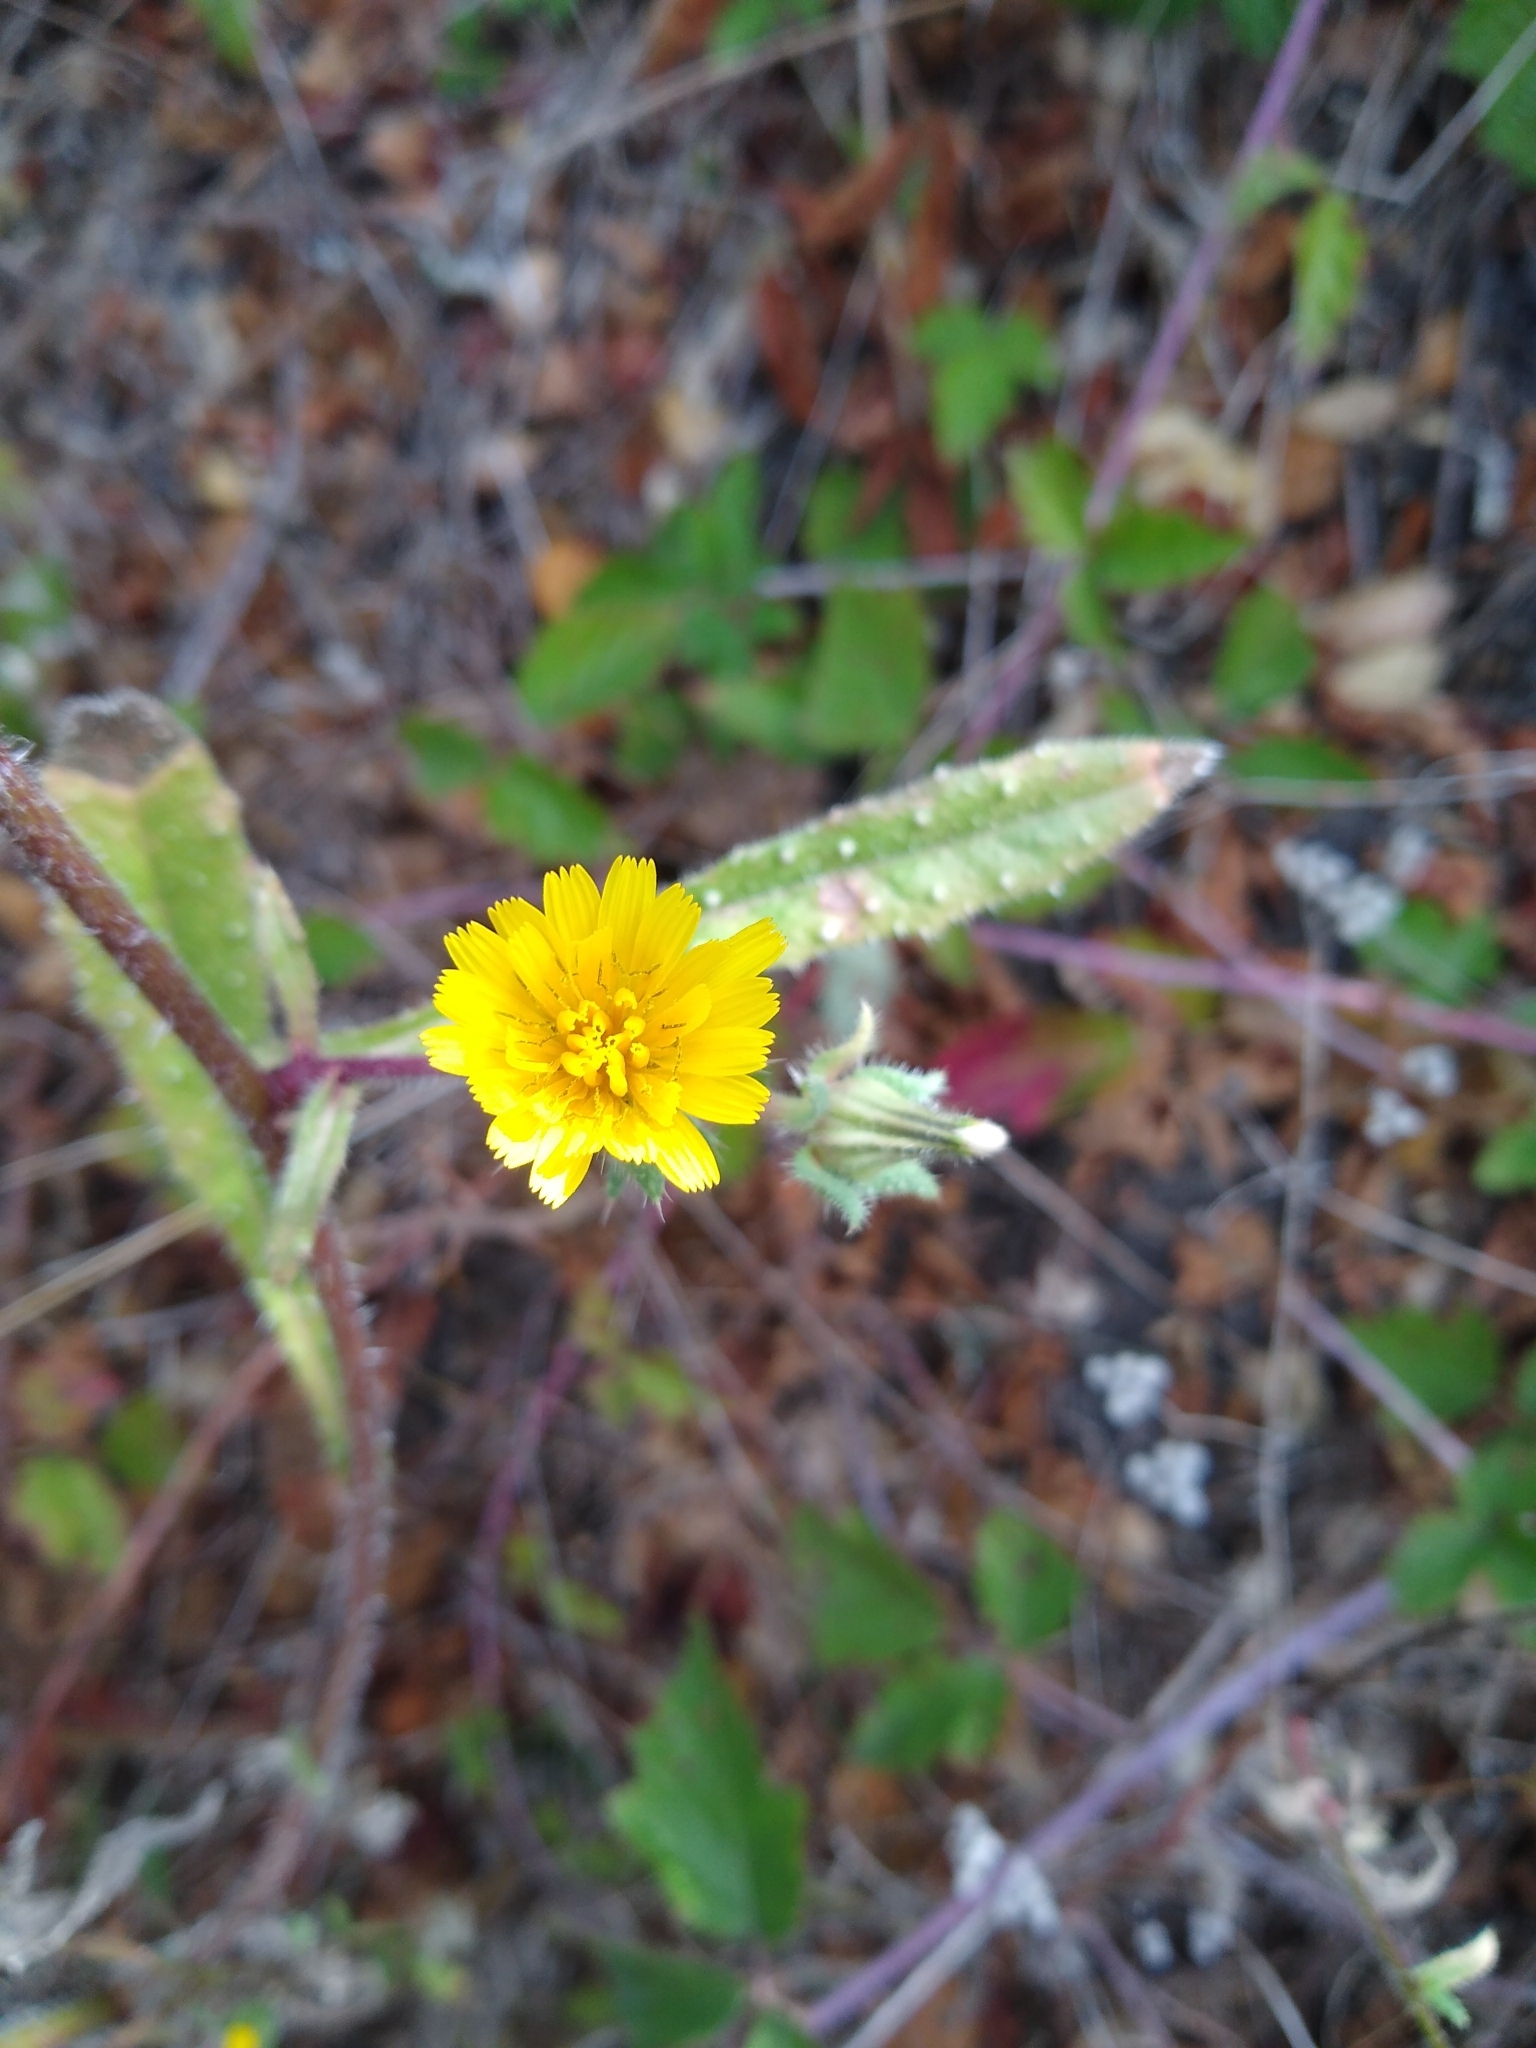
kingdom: Plantae
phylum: Tracheophyta
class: Magnoliopsida
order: Asterales
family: Asteraceae
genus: Helminthotheca
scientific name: Helminthotheca echioides
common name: Ox-tongue
